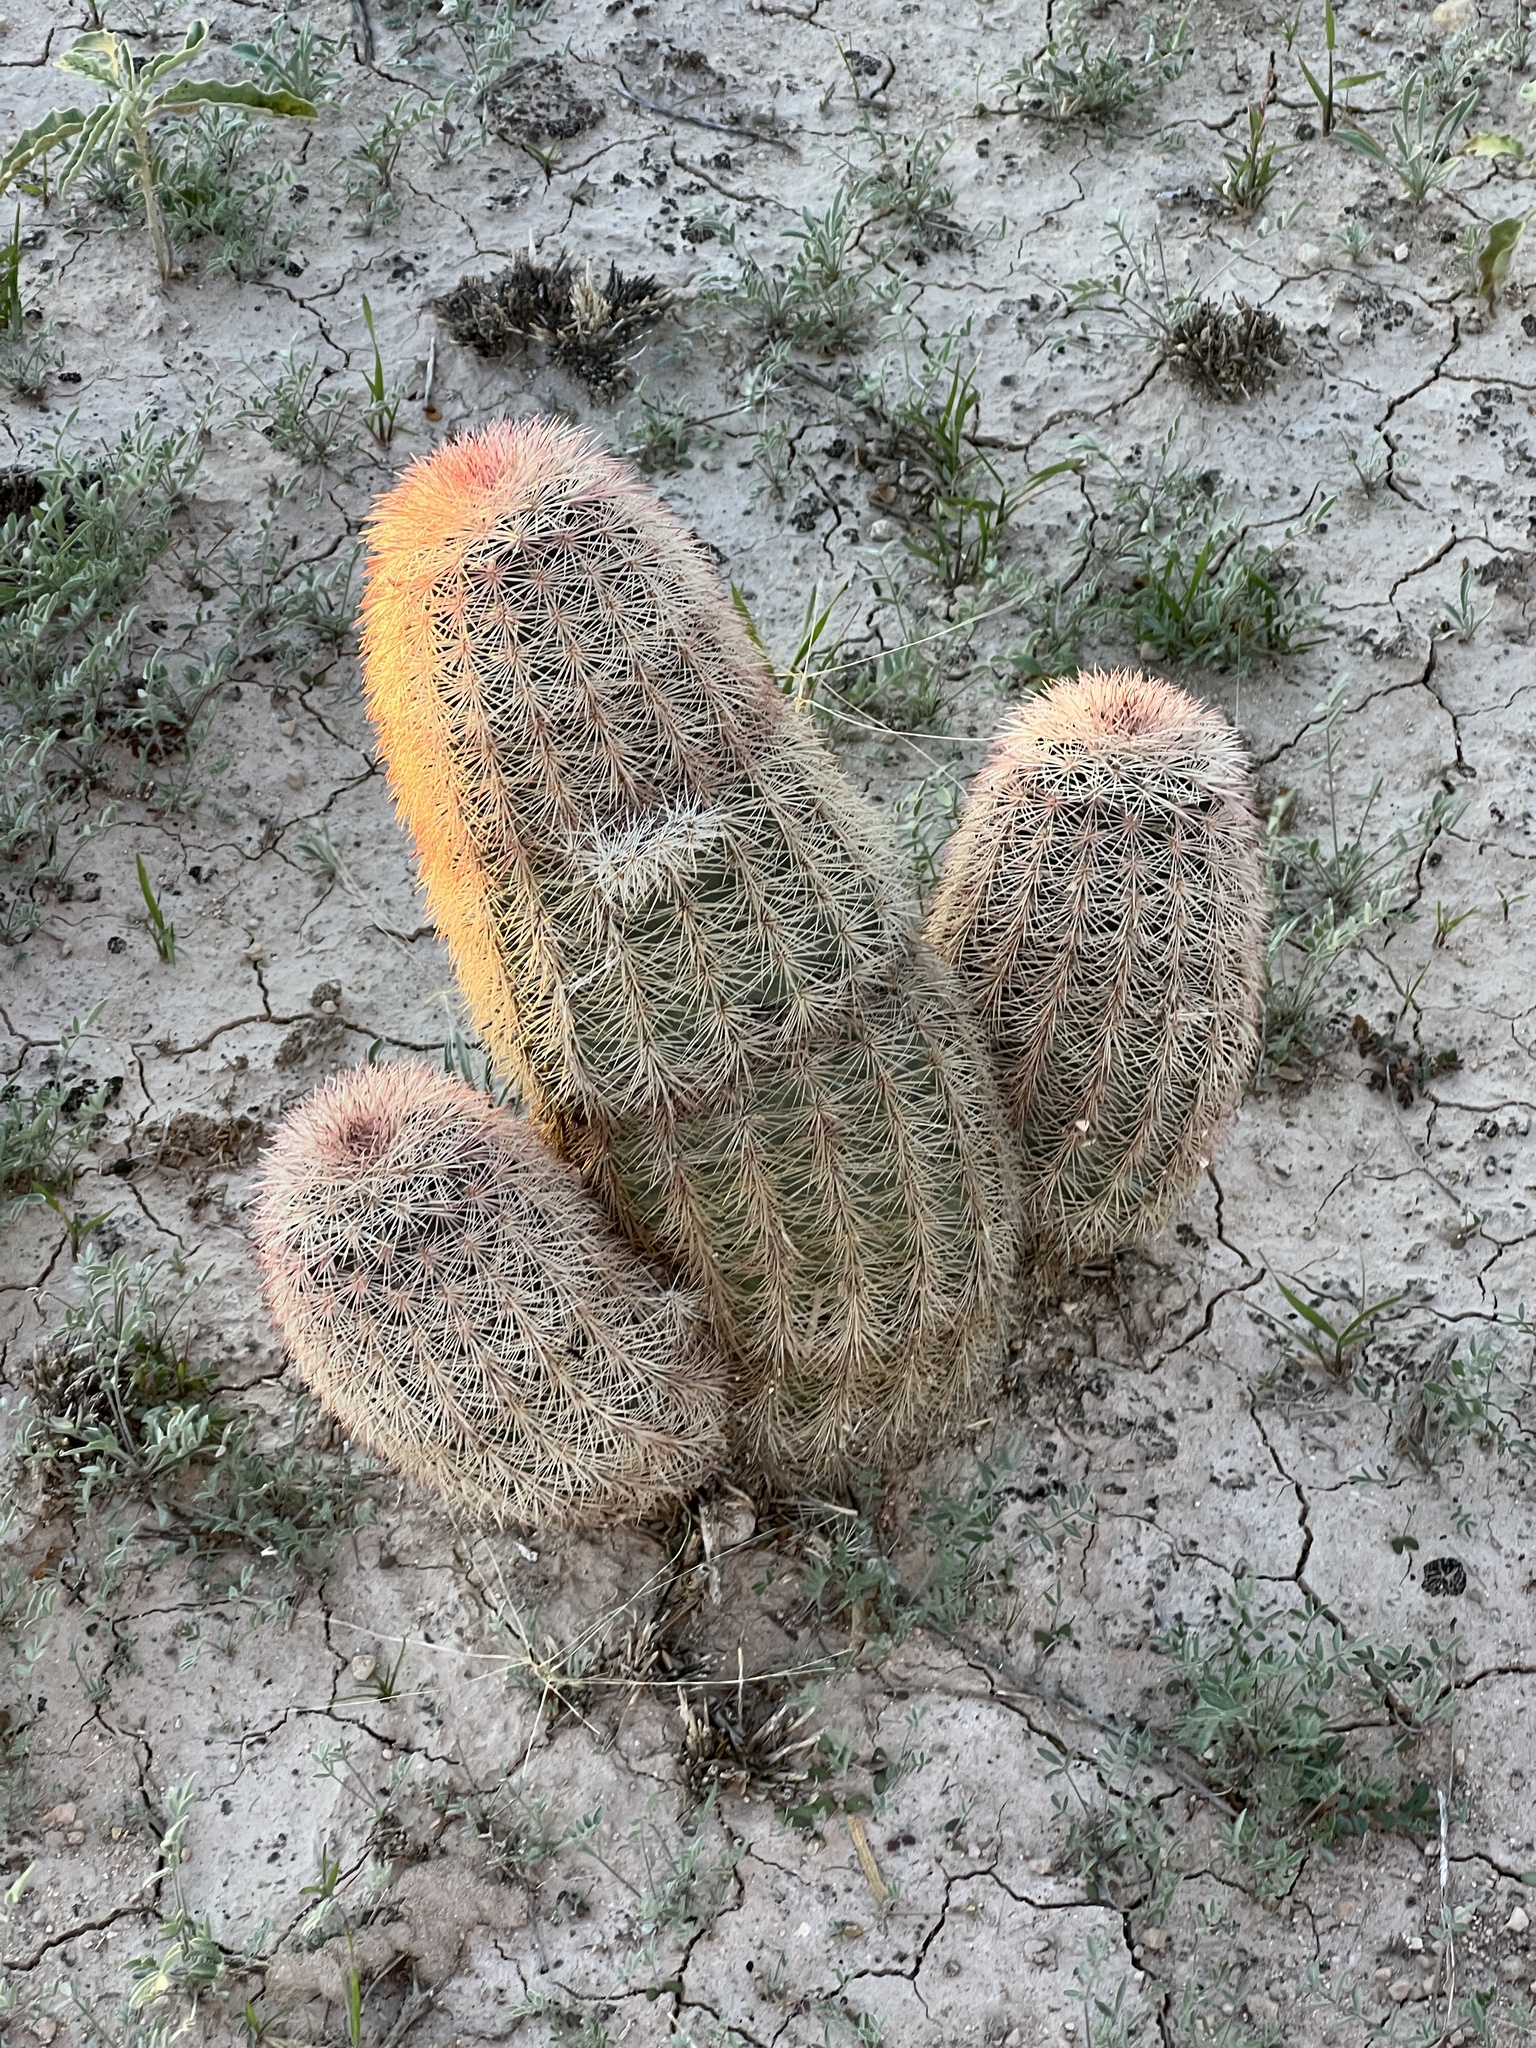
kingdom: Plantae
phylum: Tracheophyta
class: Magnoliopsida
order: Caryophyllales
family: Cactaceae
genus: Echinocereus
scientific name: Echinocereus dasyacanthus
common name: Spiny hedgehog cactus
